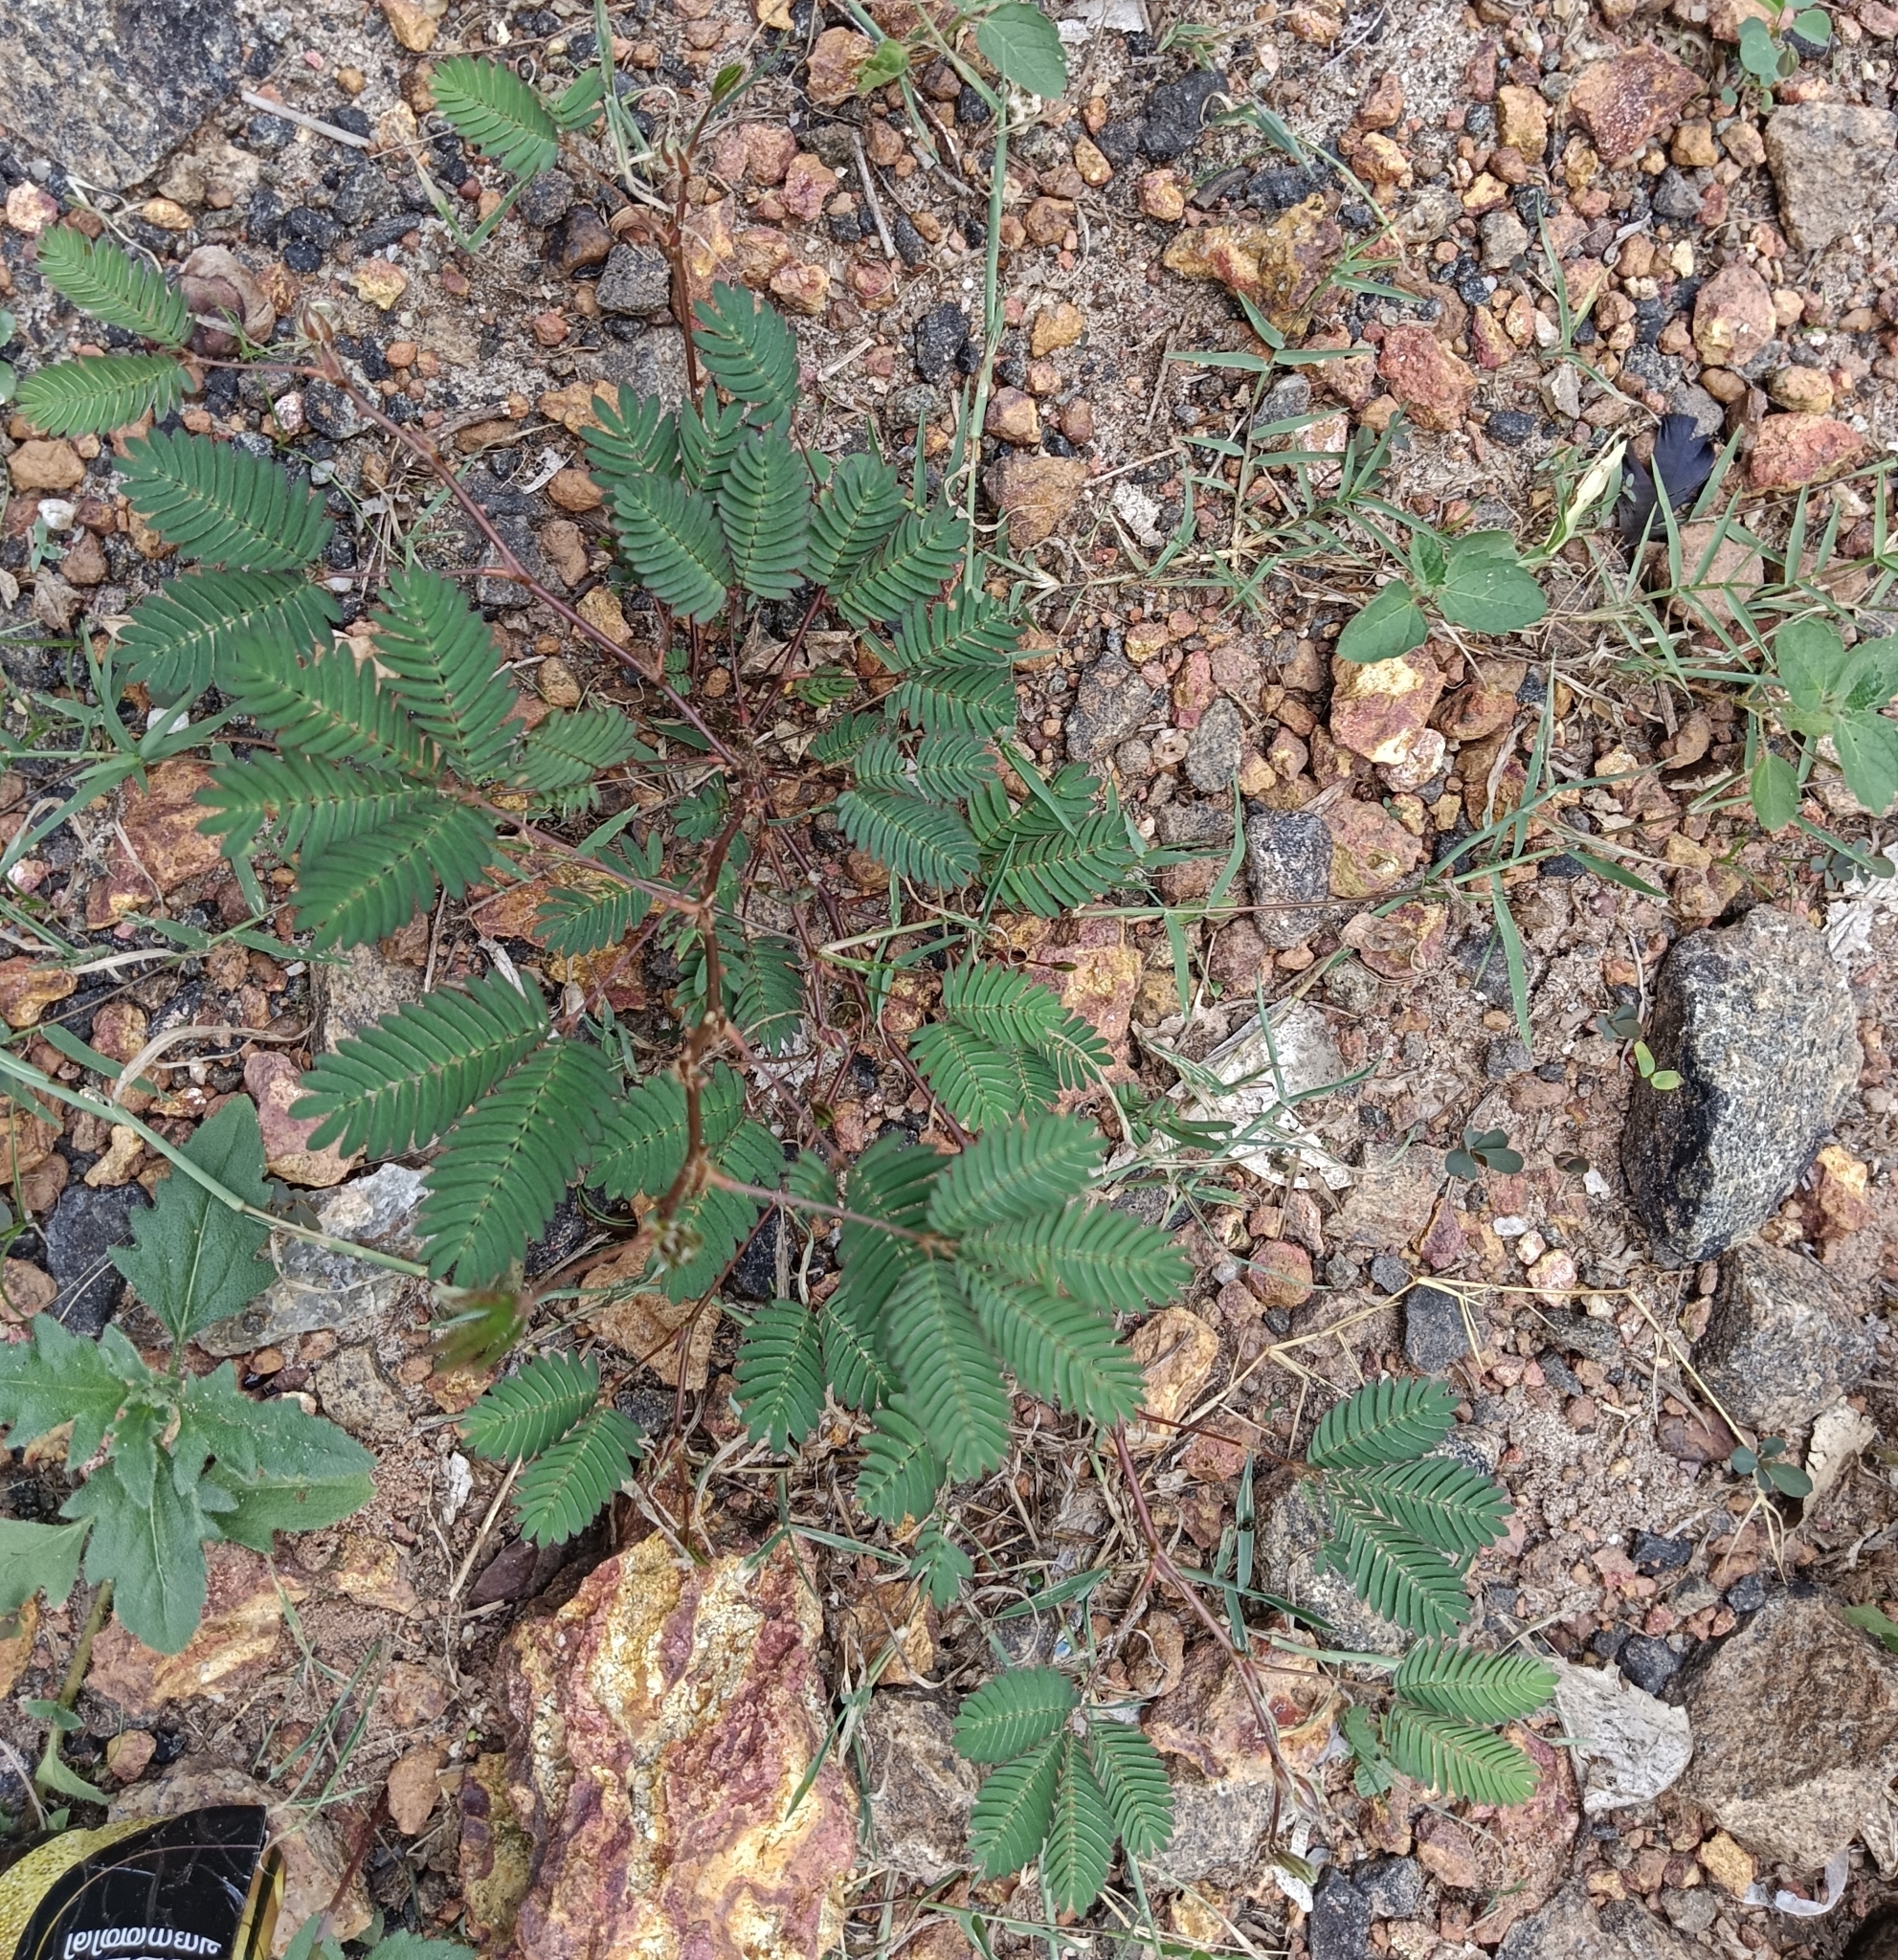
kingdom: Plantae
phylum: Tracheophyta
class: Magnoliopsida
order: Fabales
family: Fabaceae
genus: Mimosa
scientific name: Mimosa pudica
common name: Sensitive plant
